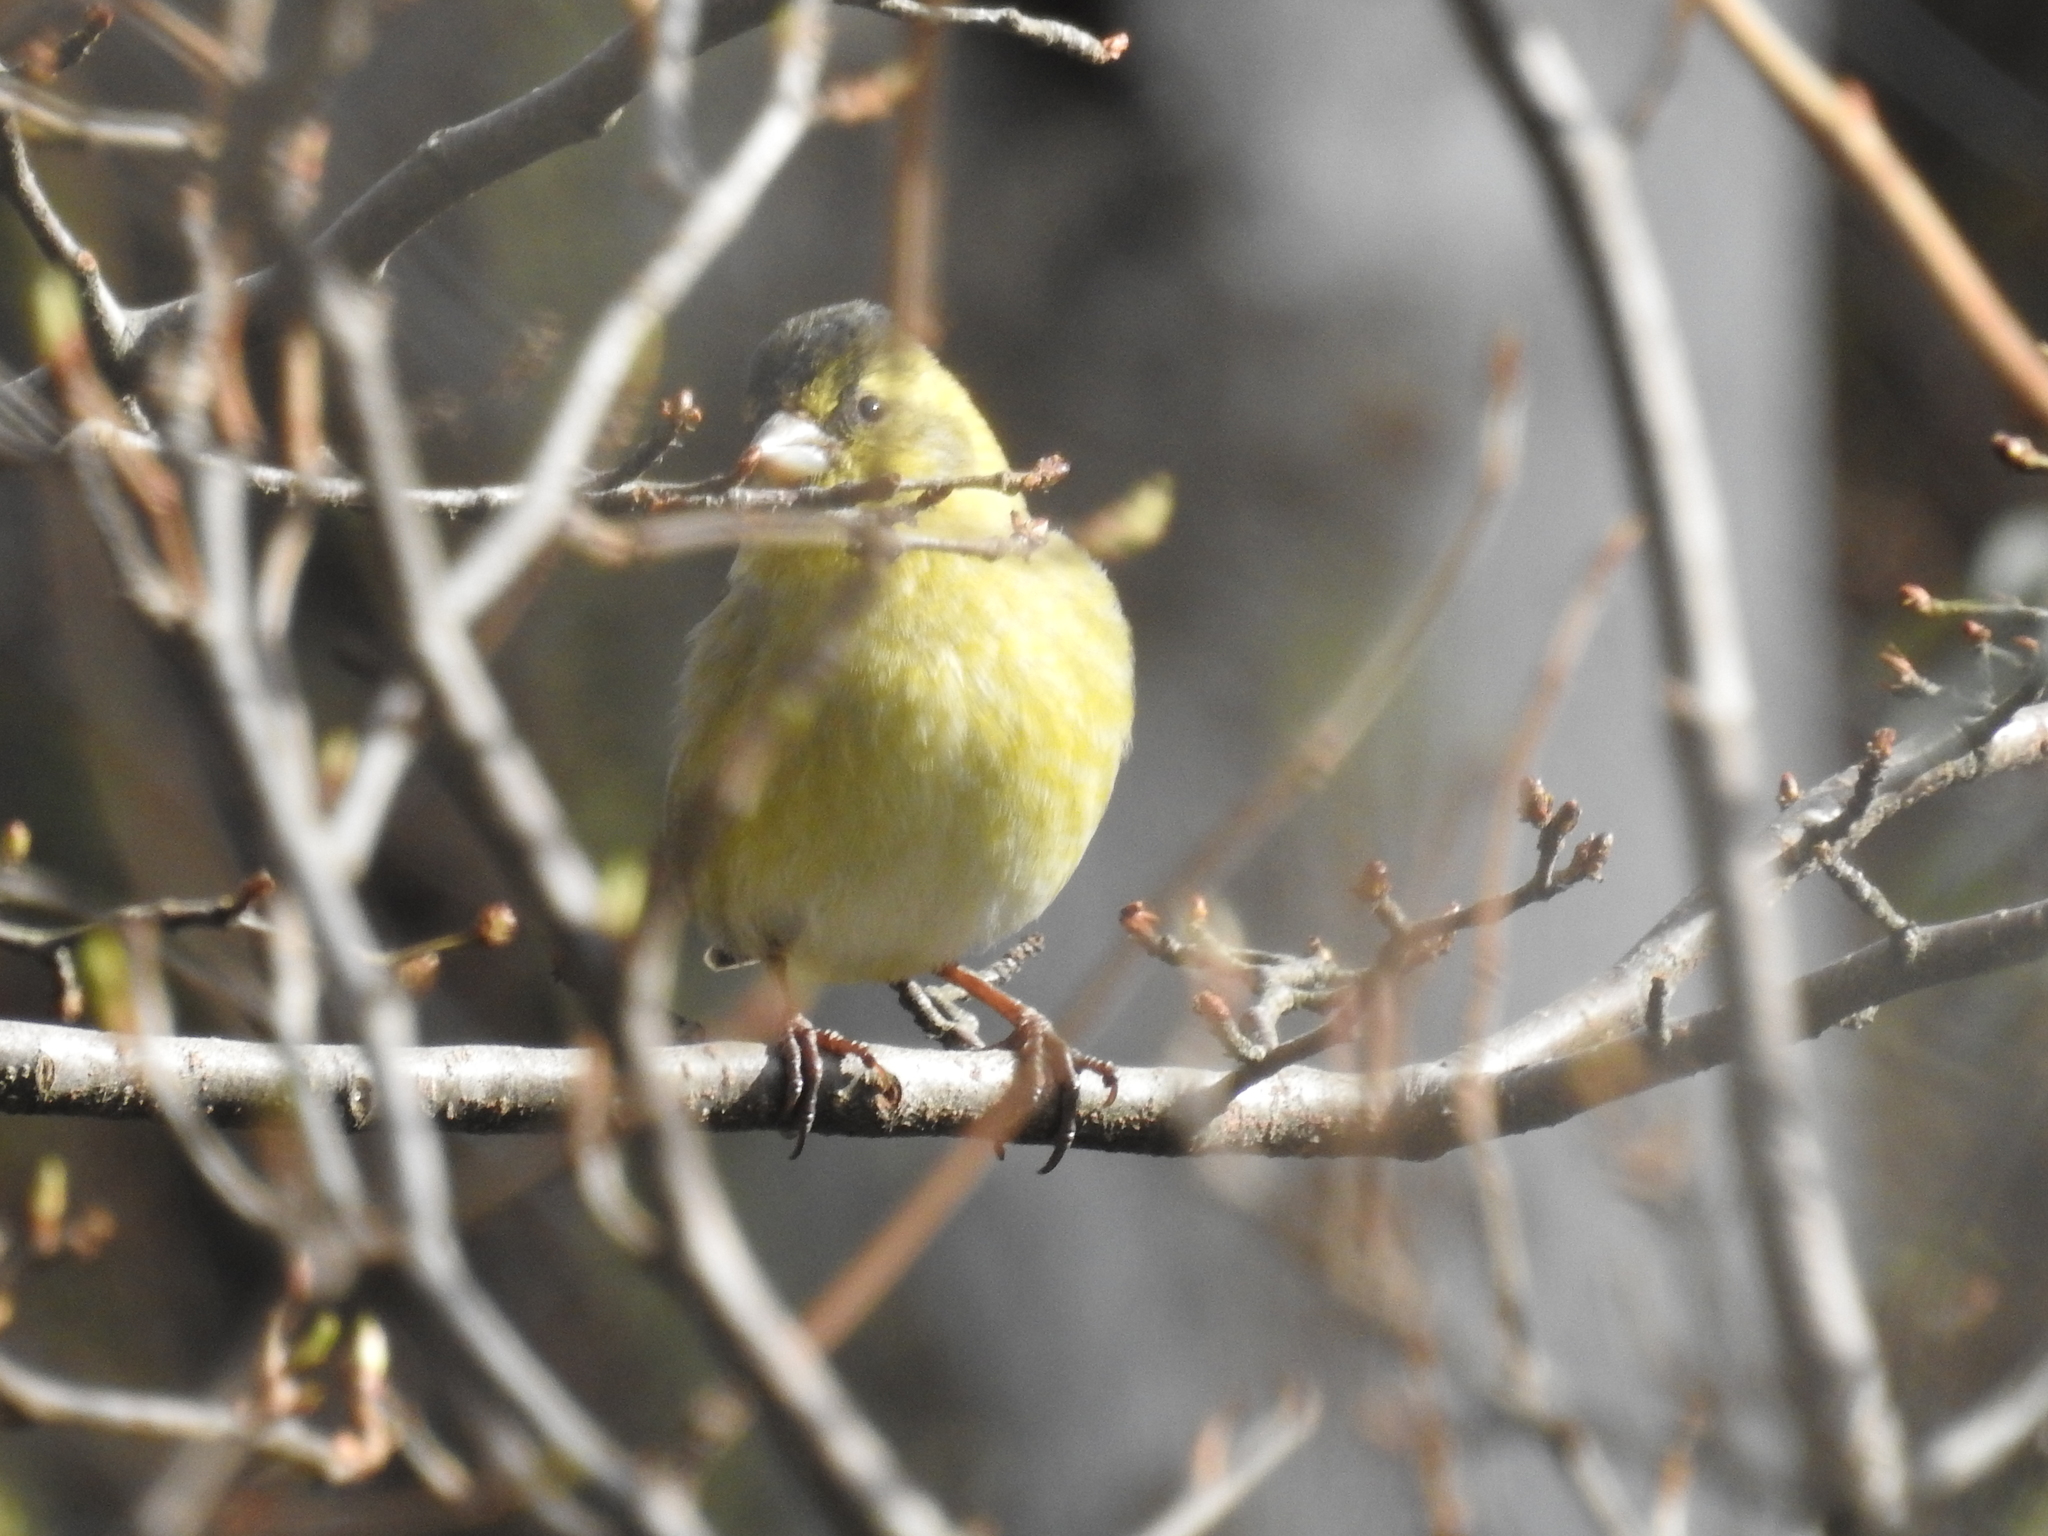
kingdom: Animalia
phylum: Chordata
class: Aves
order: Passeriformes
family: Fringillidae
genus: Spinus
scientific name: Spinus barbatus
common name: Black-chinned siskin
